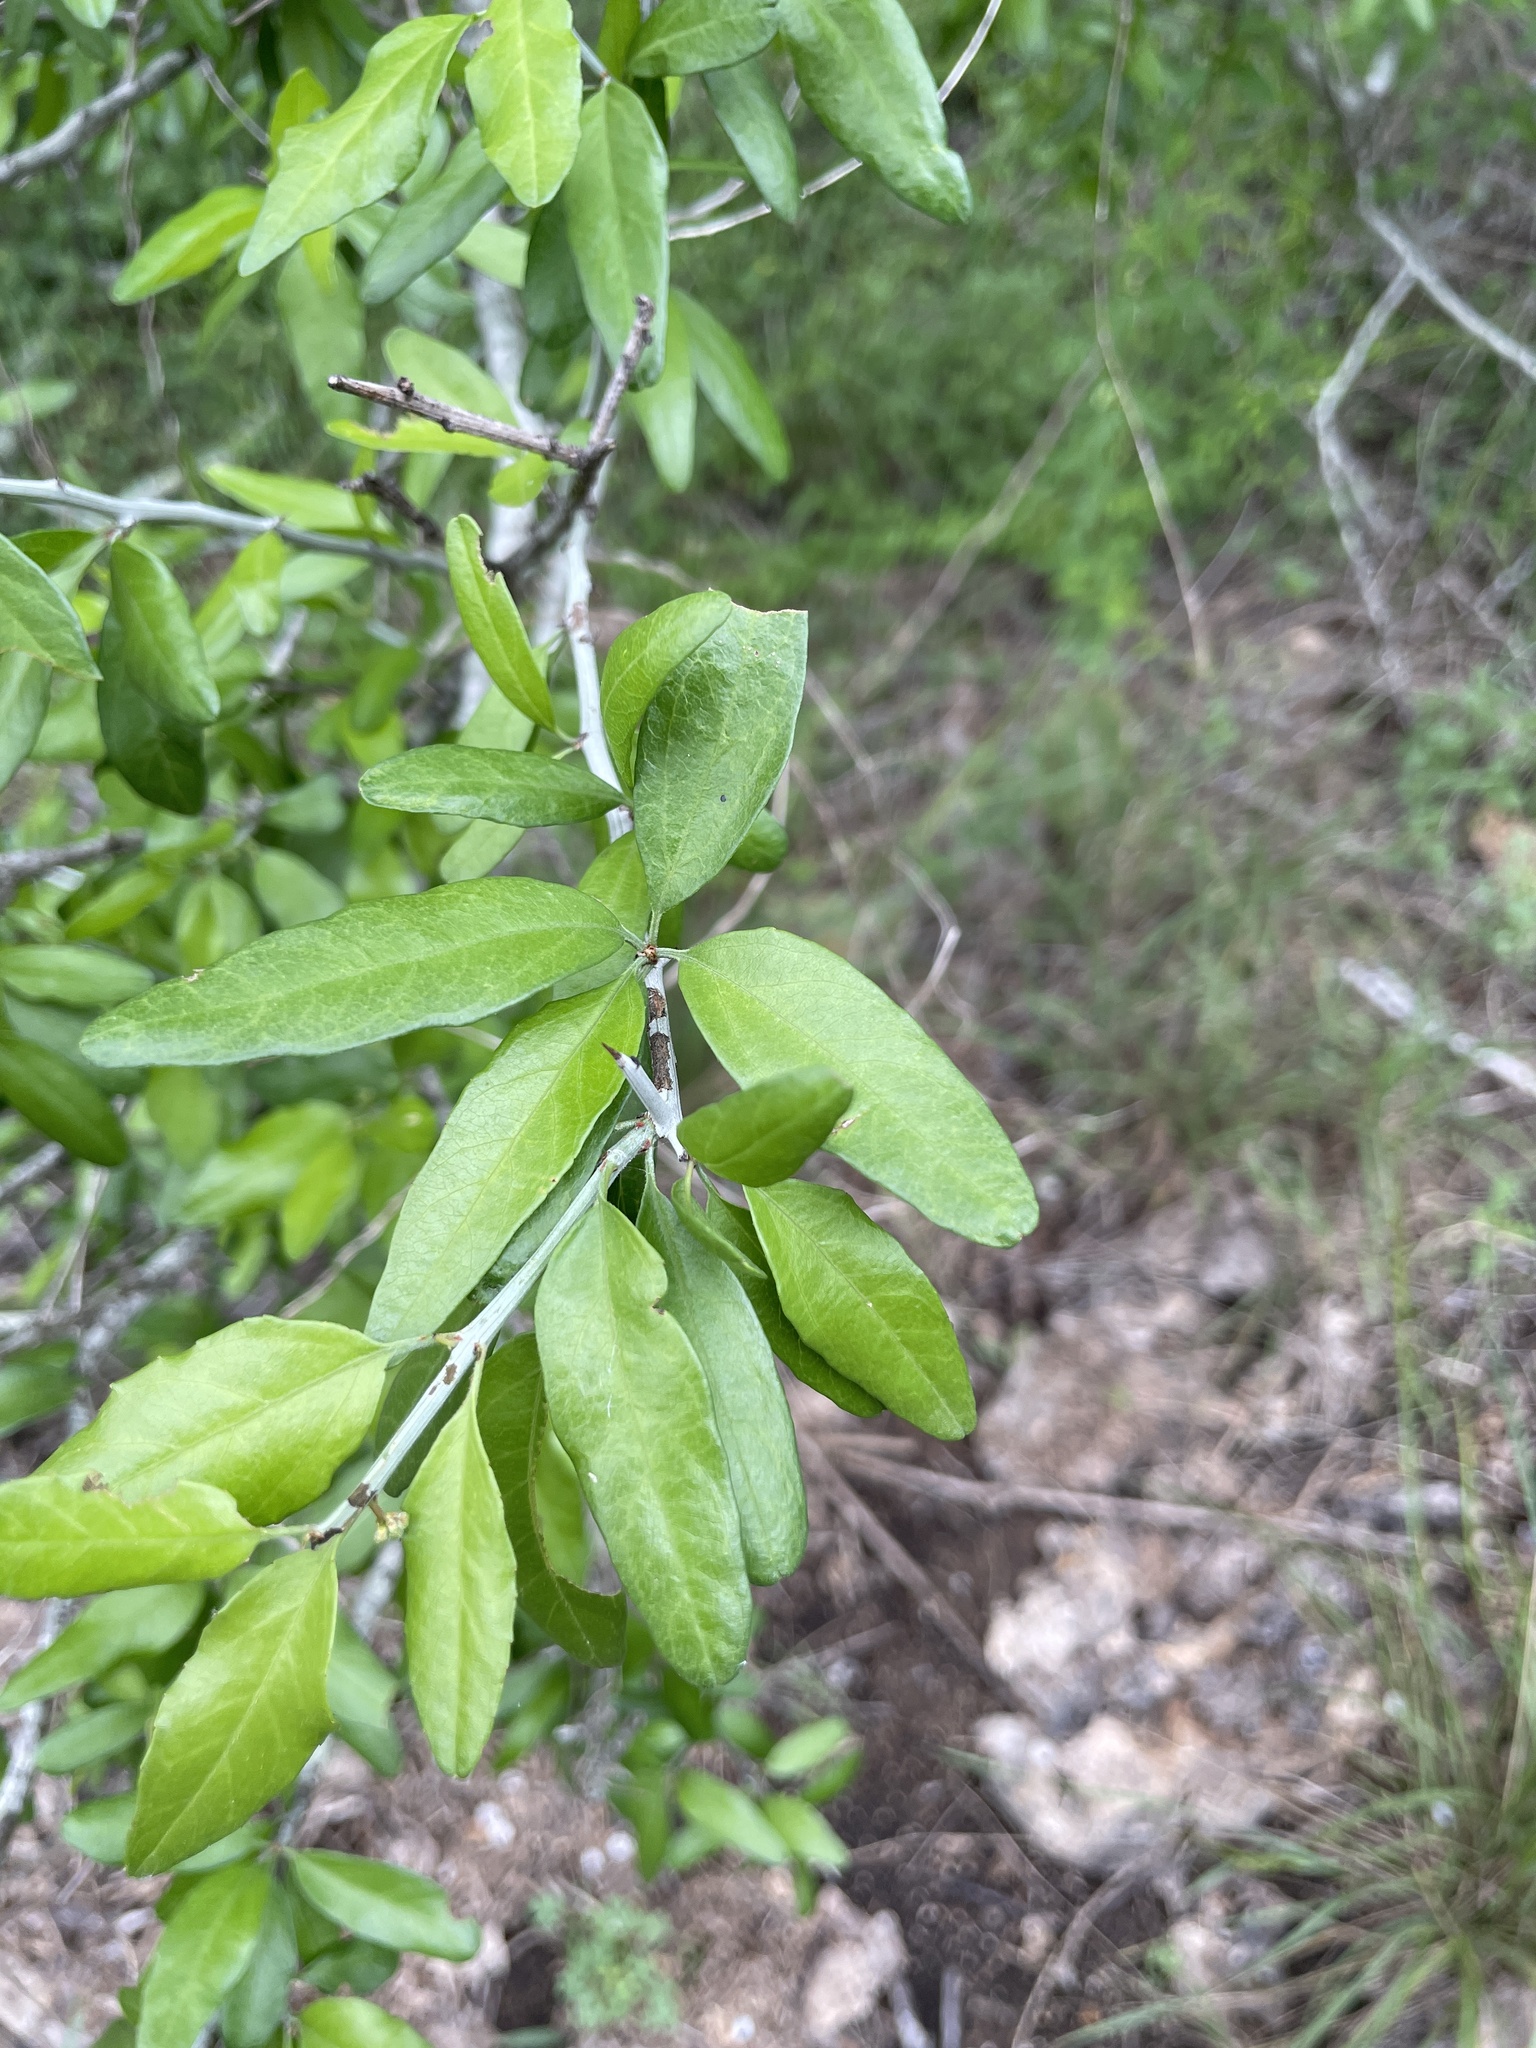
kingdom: Plantae
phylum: Tracheophyta
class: Magnoliopsida
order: Rosales
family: Rhamnaceae
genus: Sarcomphalus
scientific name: Sarcomphalus obtusifolius
